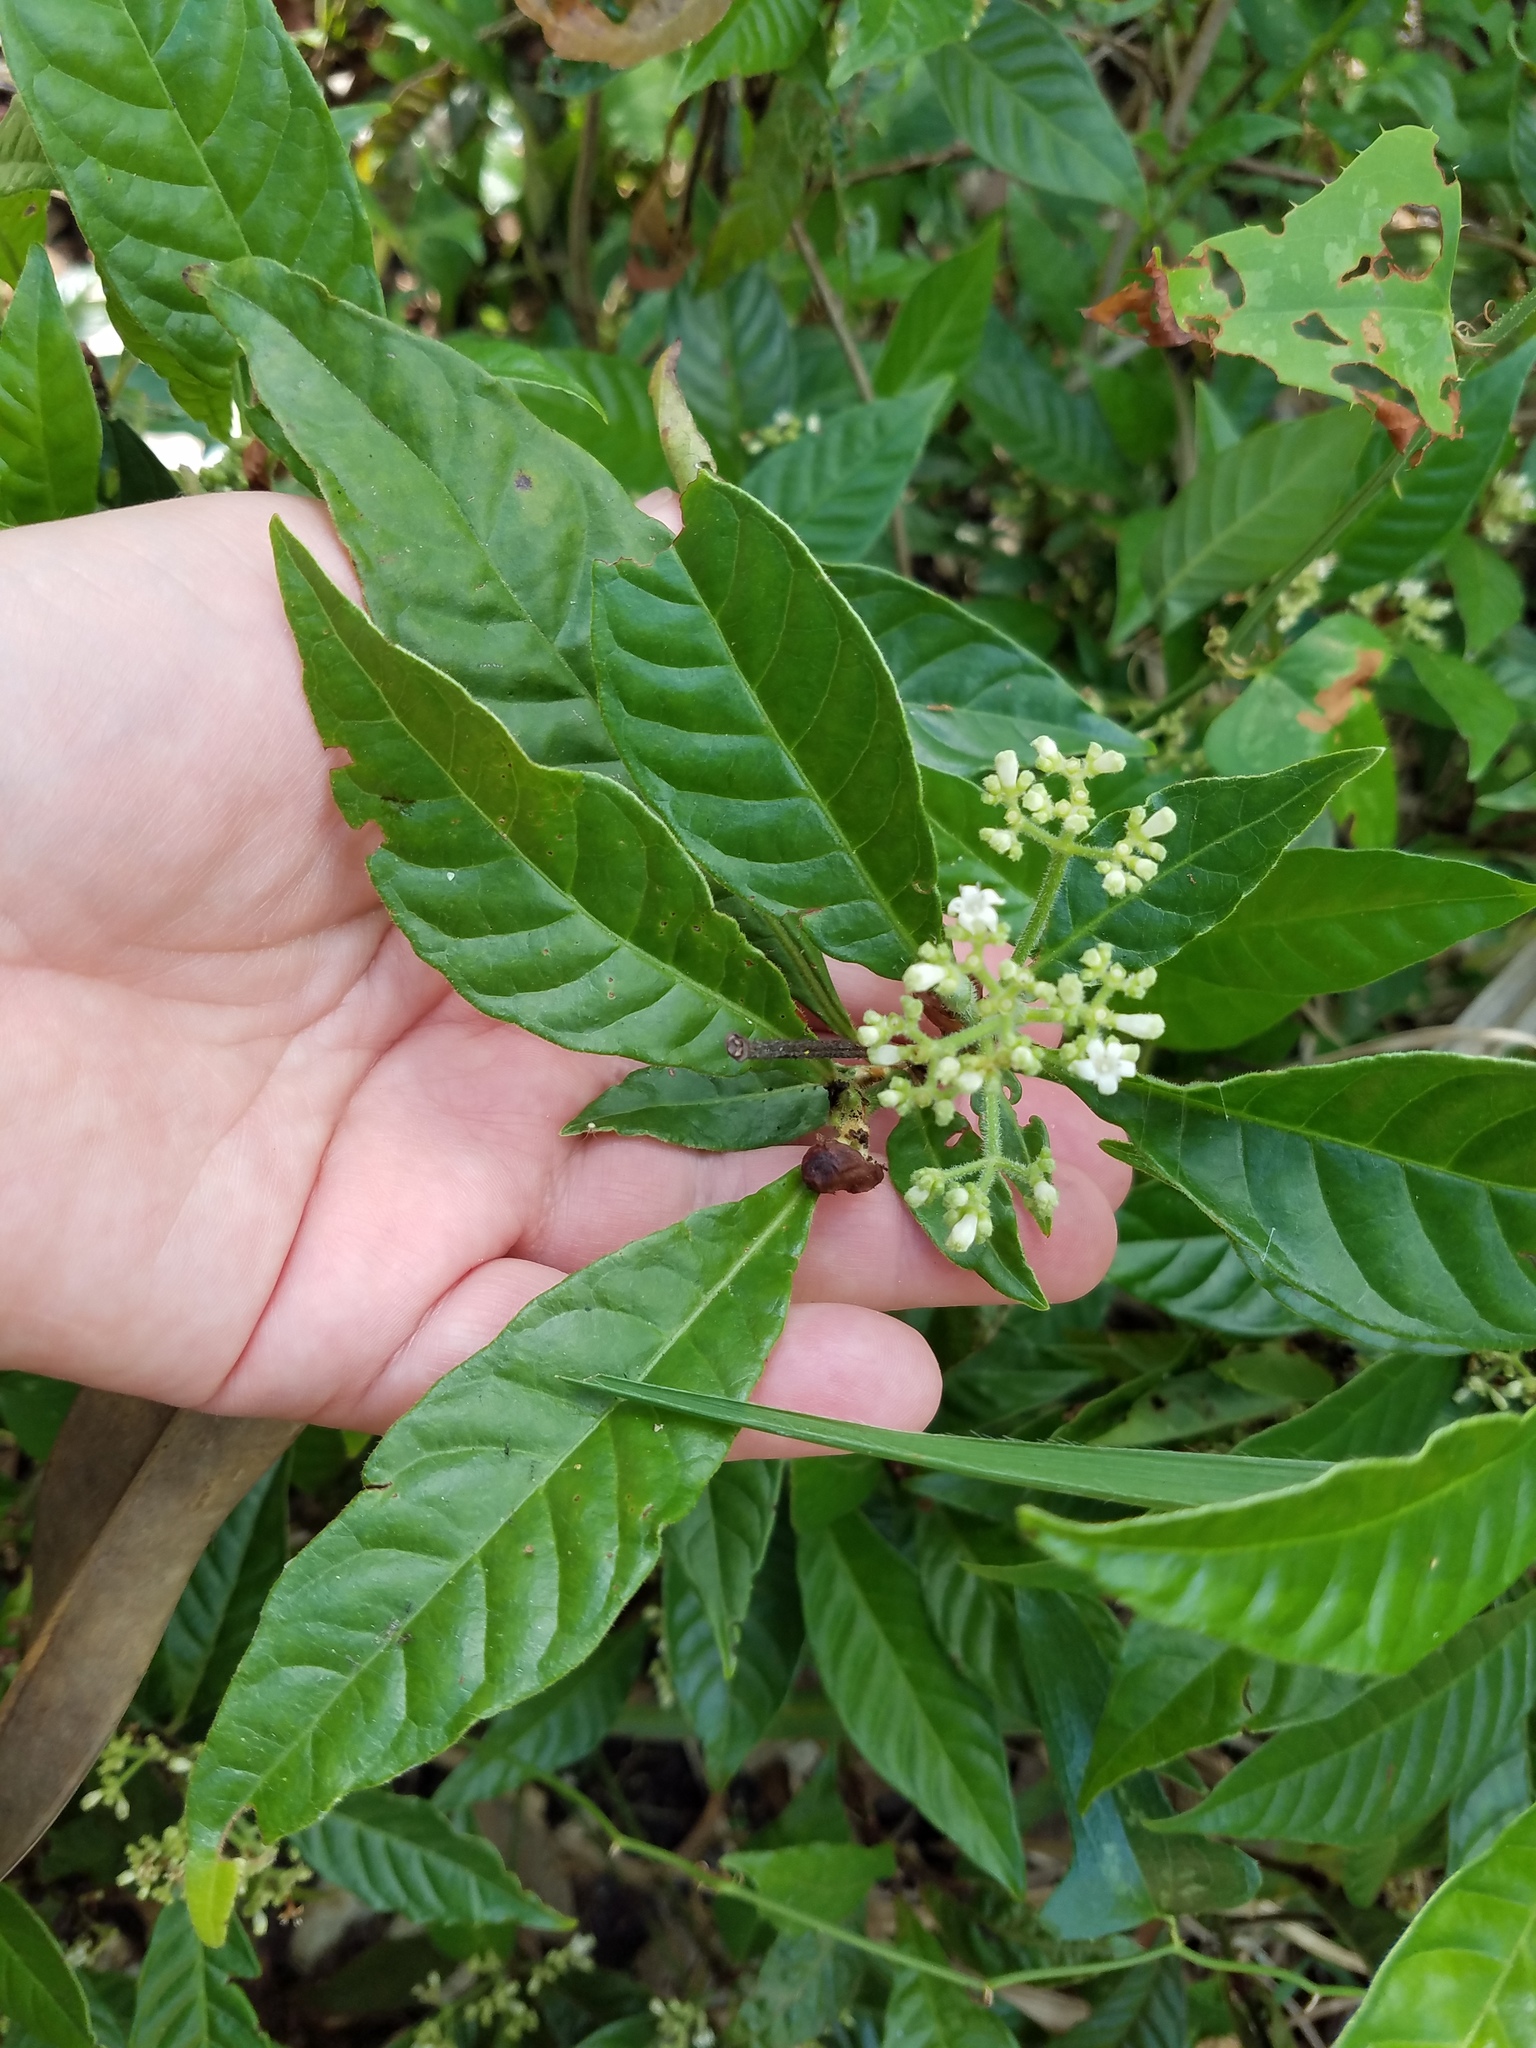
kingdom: Plantae
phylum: Tracheophyta
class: Magnoliopsida
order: Gentianales
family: Rubiaceae
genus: Psychotria
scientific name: Psychotria nervosa
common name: Bastard cankerberry
